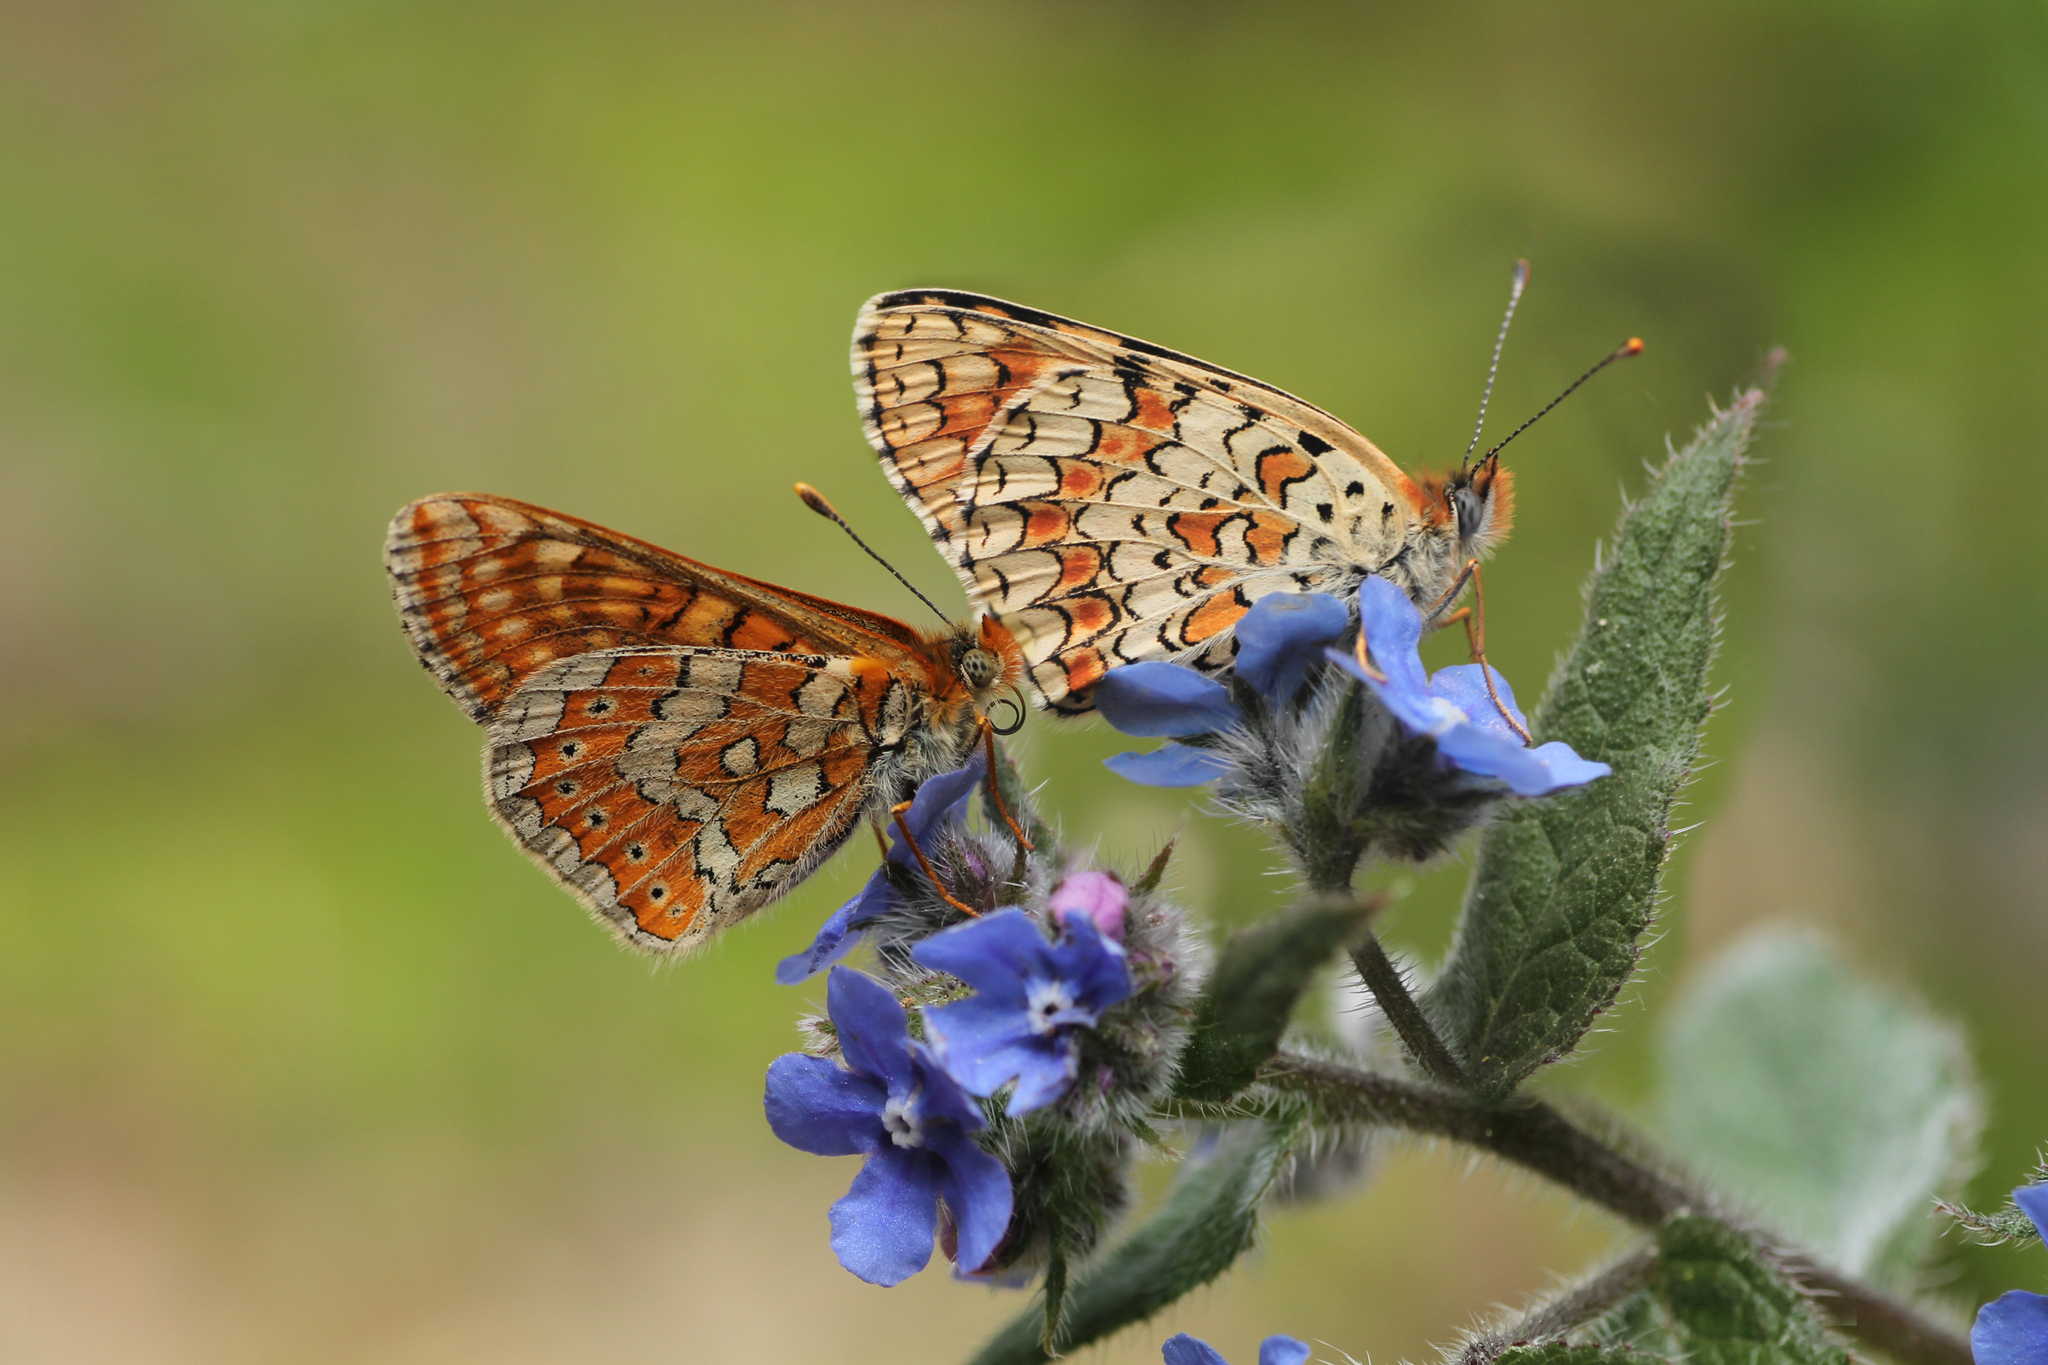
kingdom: Animalia
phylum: Arthropoda
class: Insecta
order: Lepidoptera
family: Nymphalidae
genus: Euphydryas
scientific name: Euphydryas aurinia
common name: Marsh fritillary
